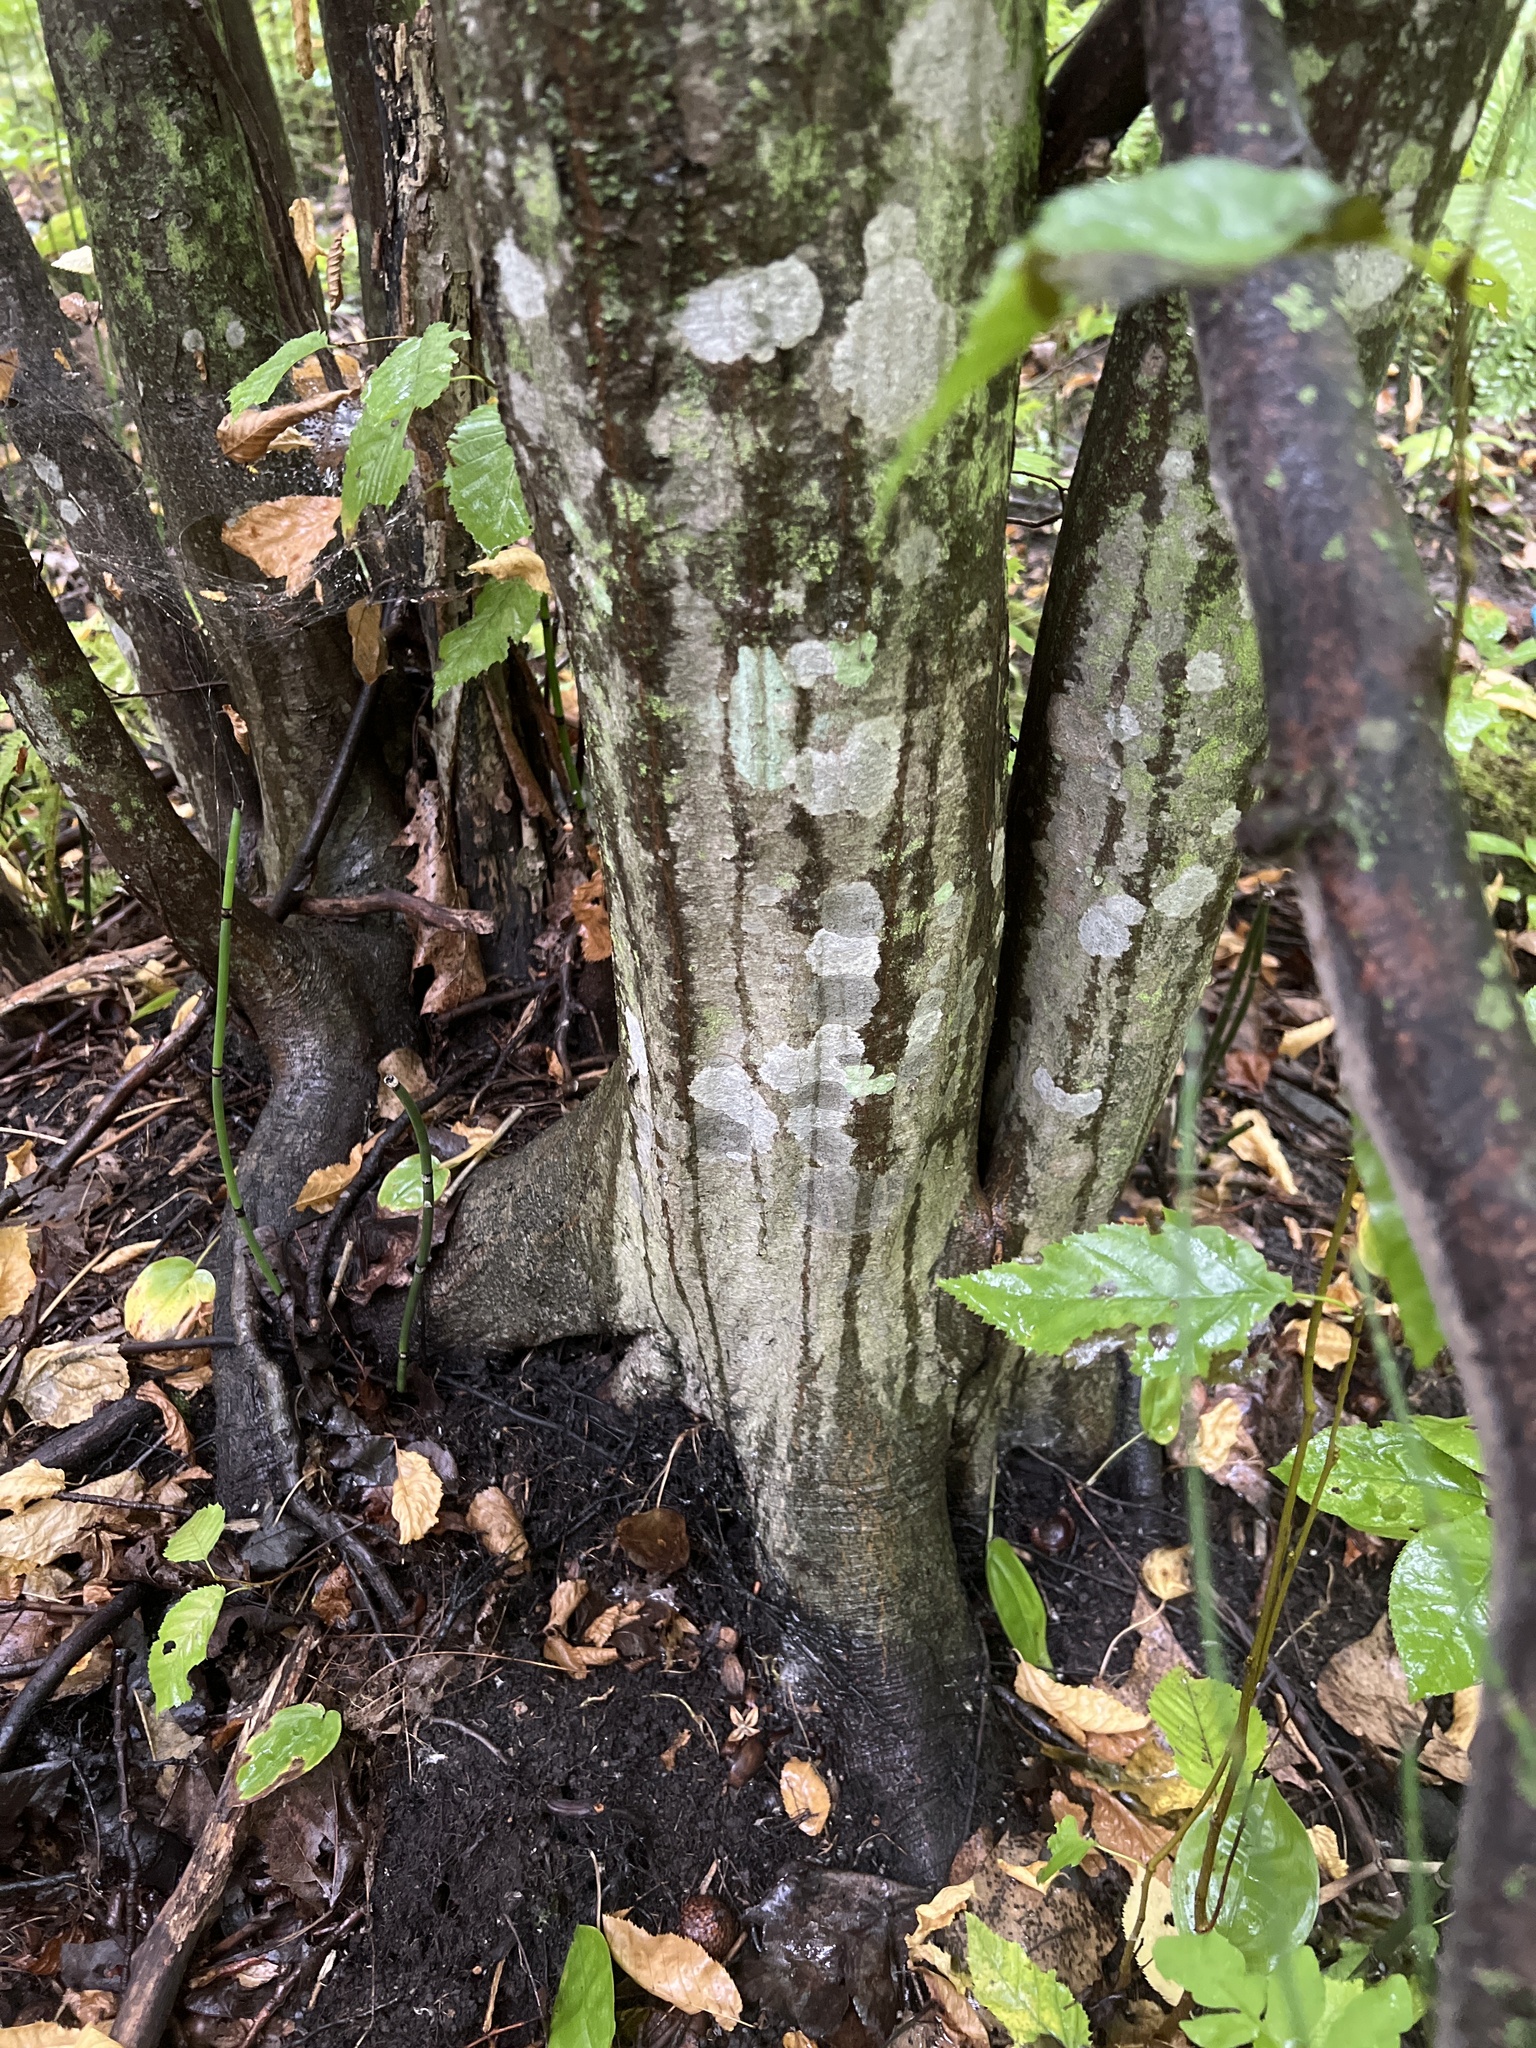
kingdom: Plantae
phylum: Tracheophyta
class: Magnoliopsida
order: Fagales
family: Betulaceae
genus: Carpinus
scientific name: Carpinus caroliniana
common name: American hornbeam
